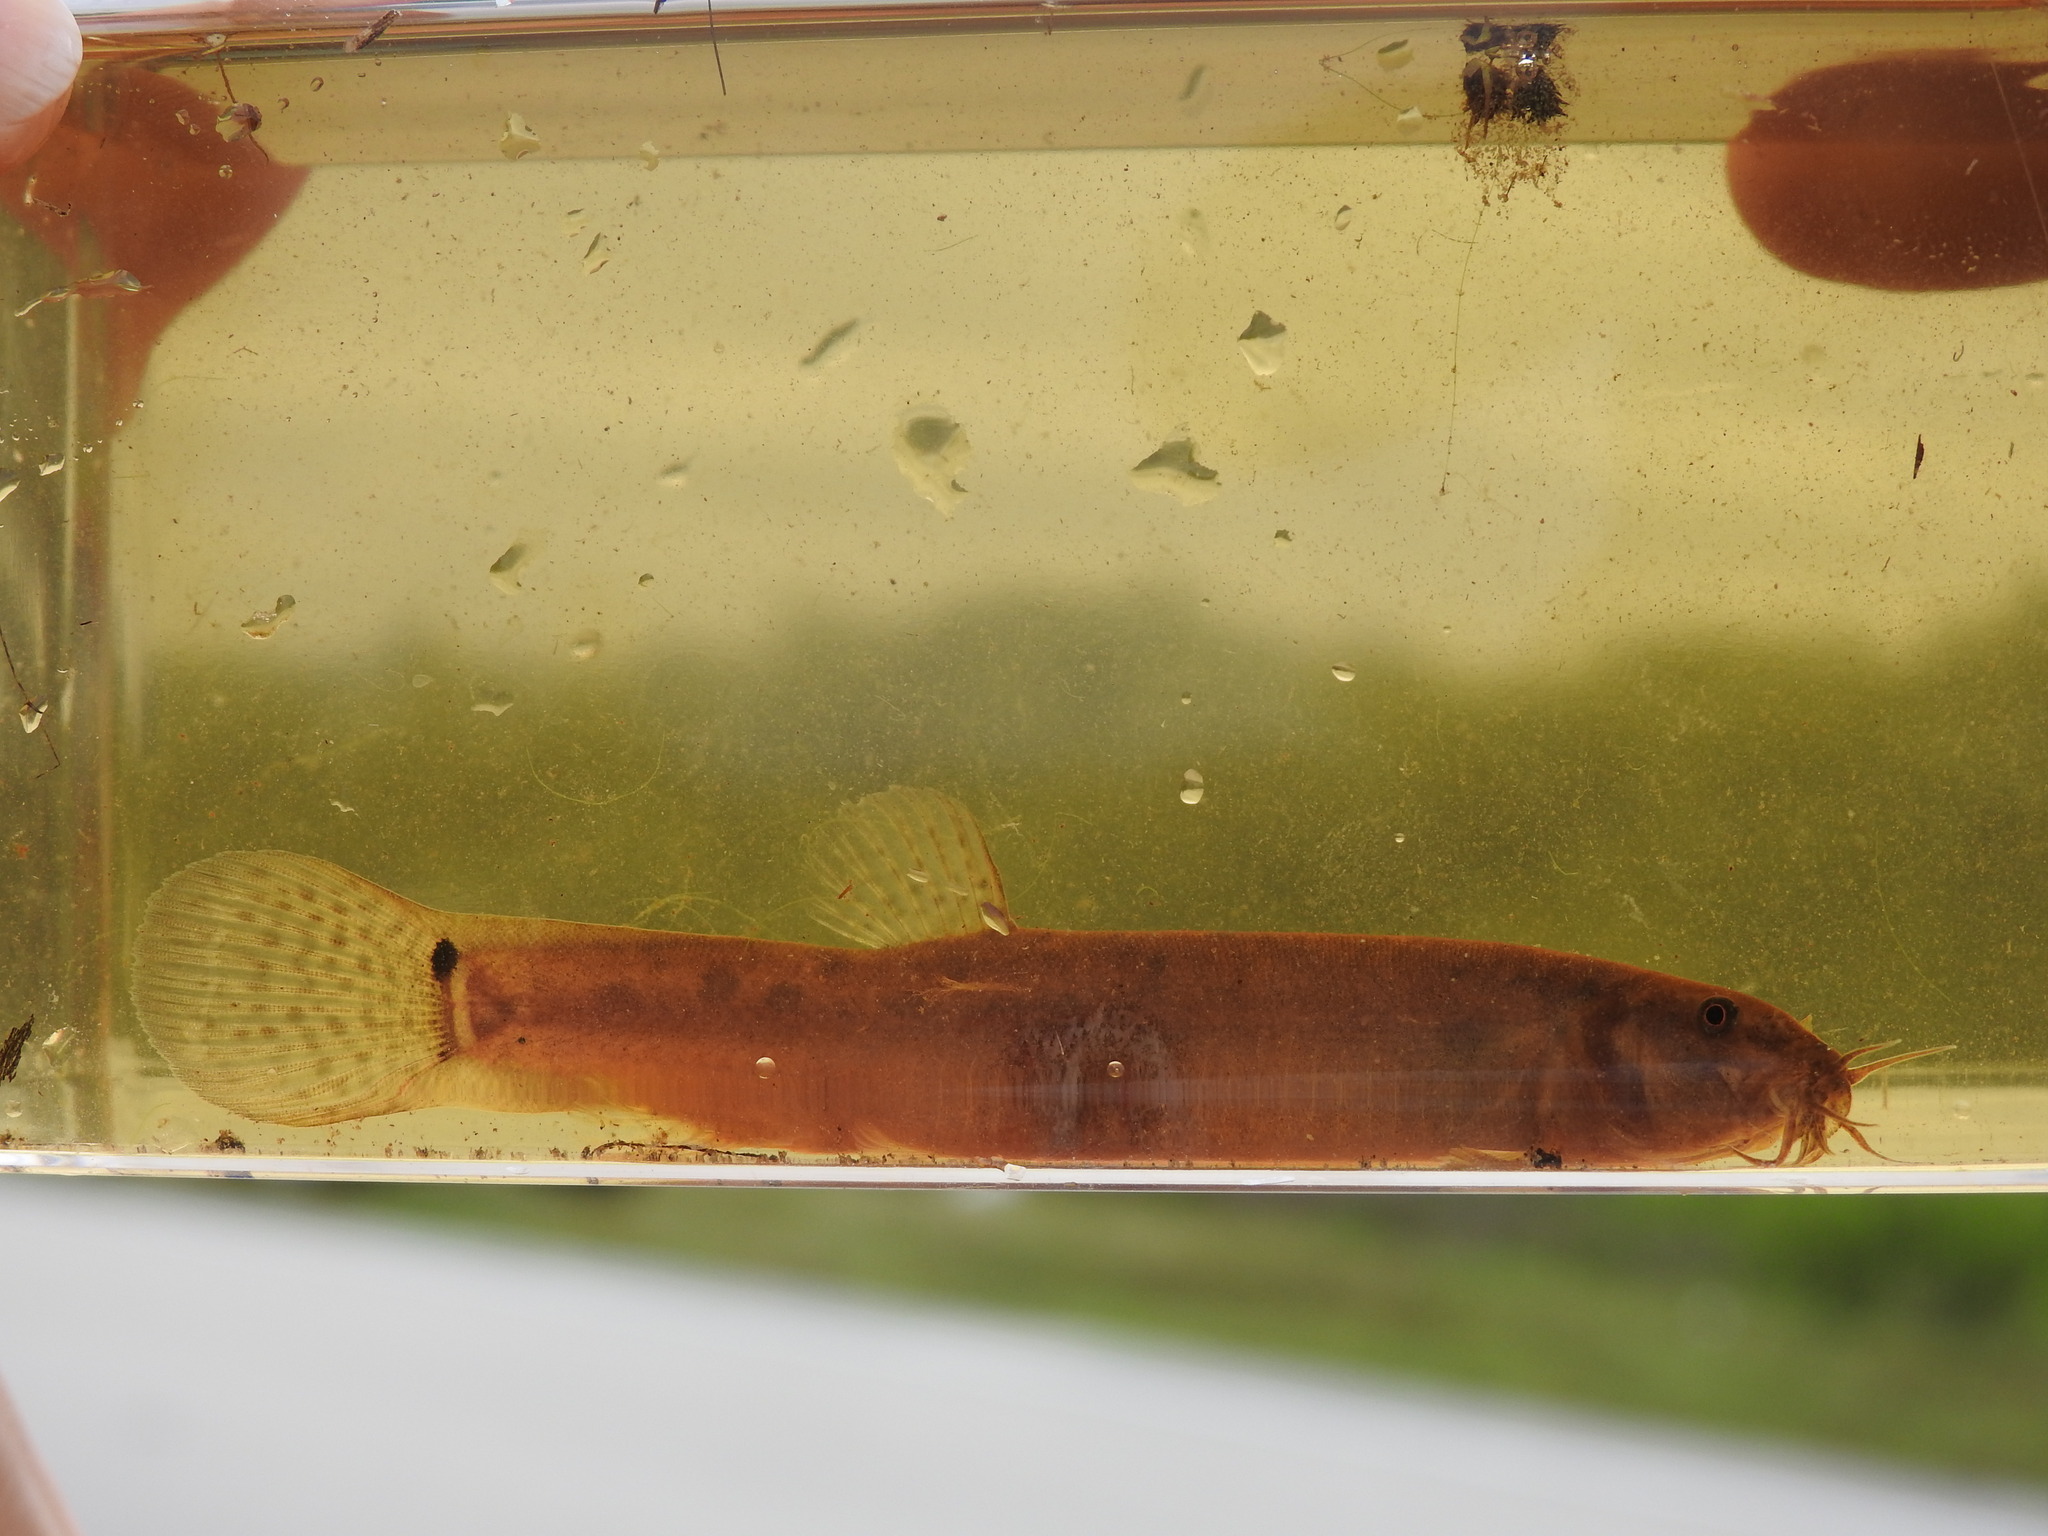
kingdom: Animalia
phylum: Chordata
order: Cypriniformes
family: Cobitidae
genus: Misgurnus
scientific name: Misgurnus anguillicaudatus
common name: Oriental weatherfish
